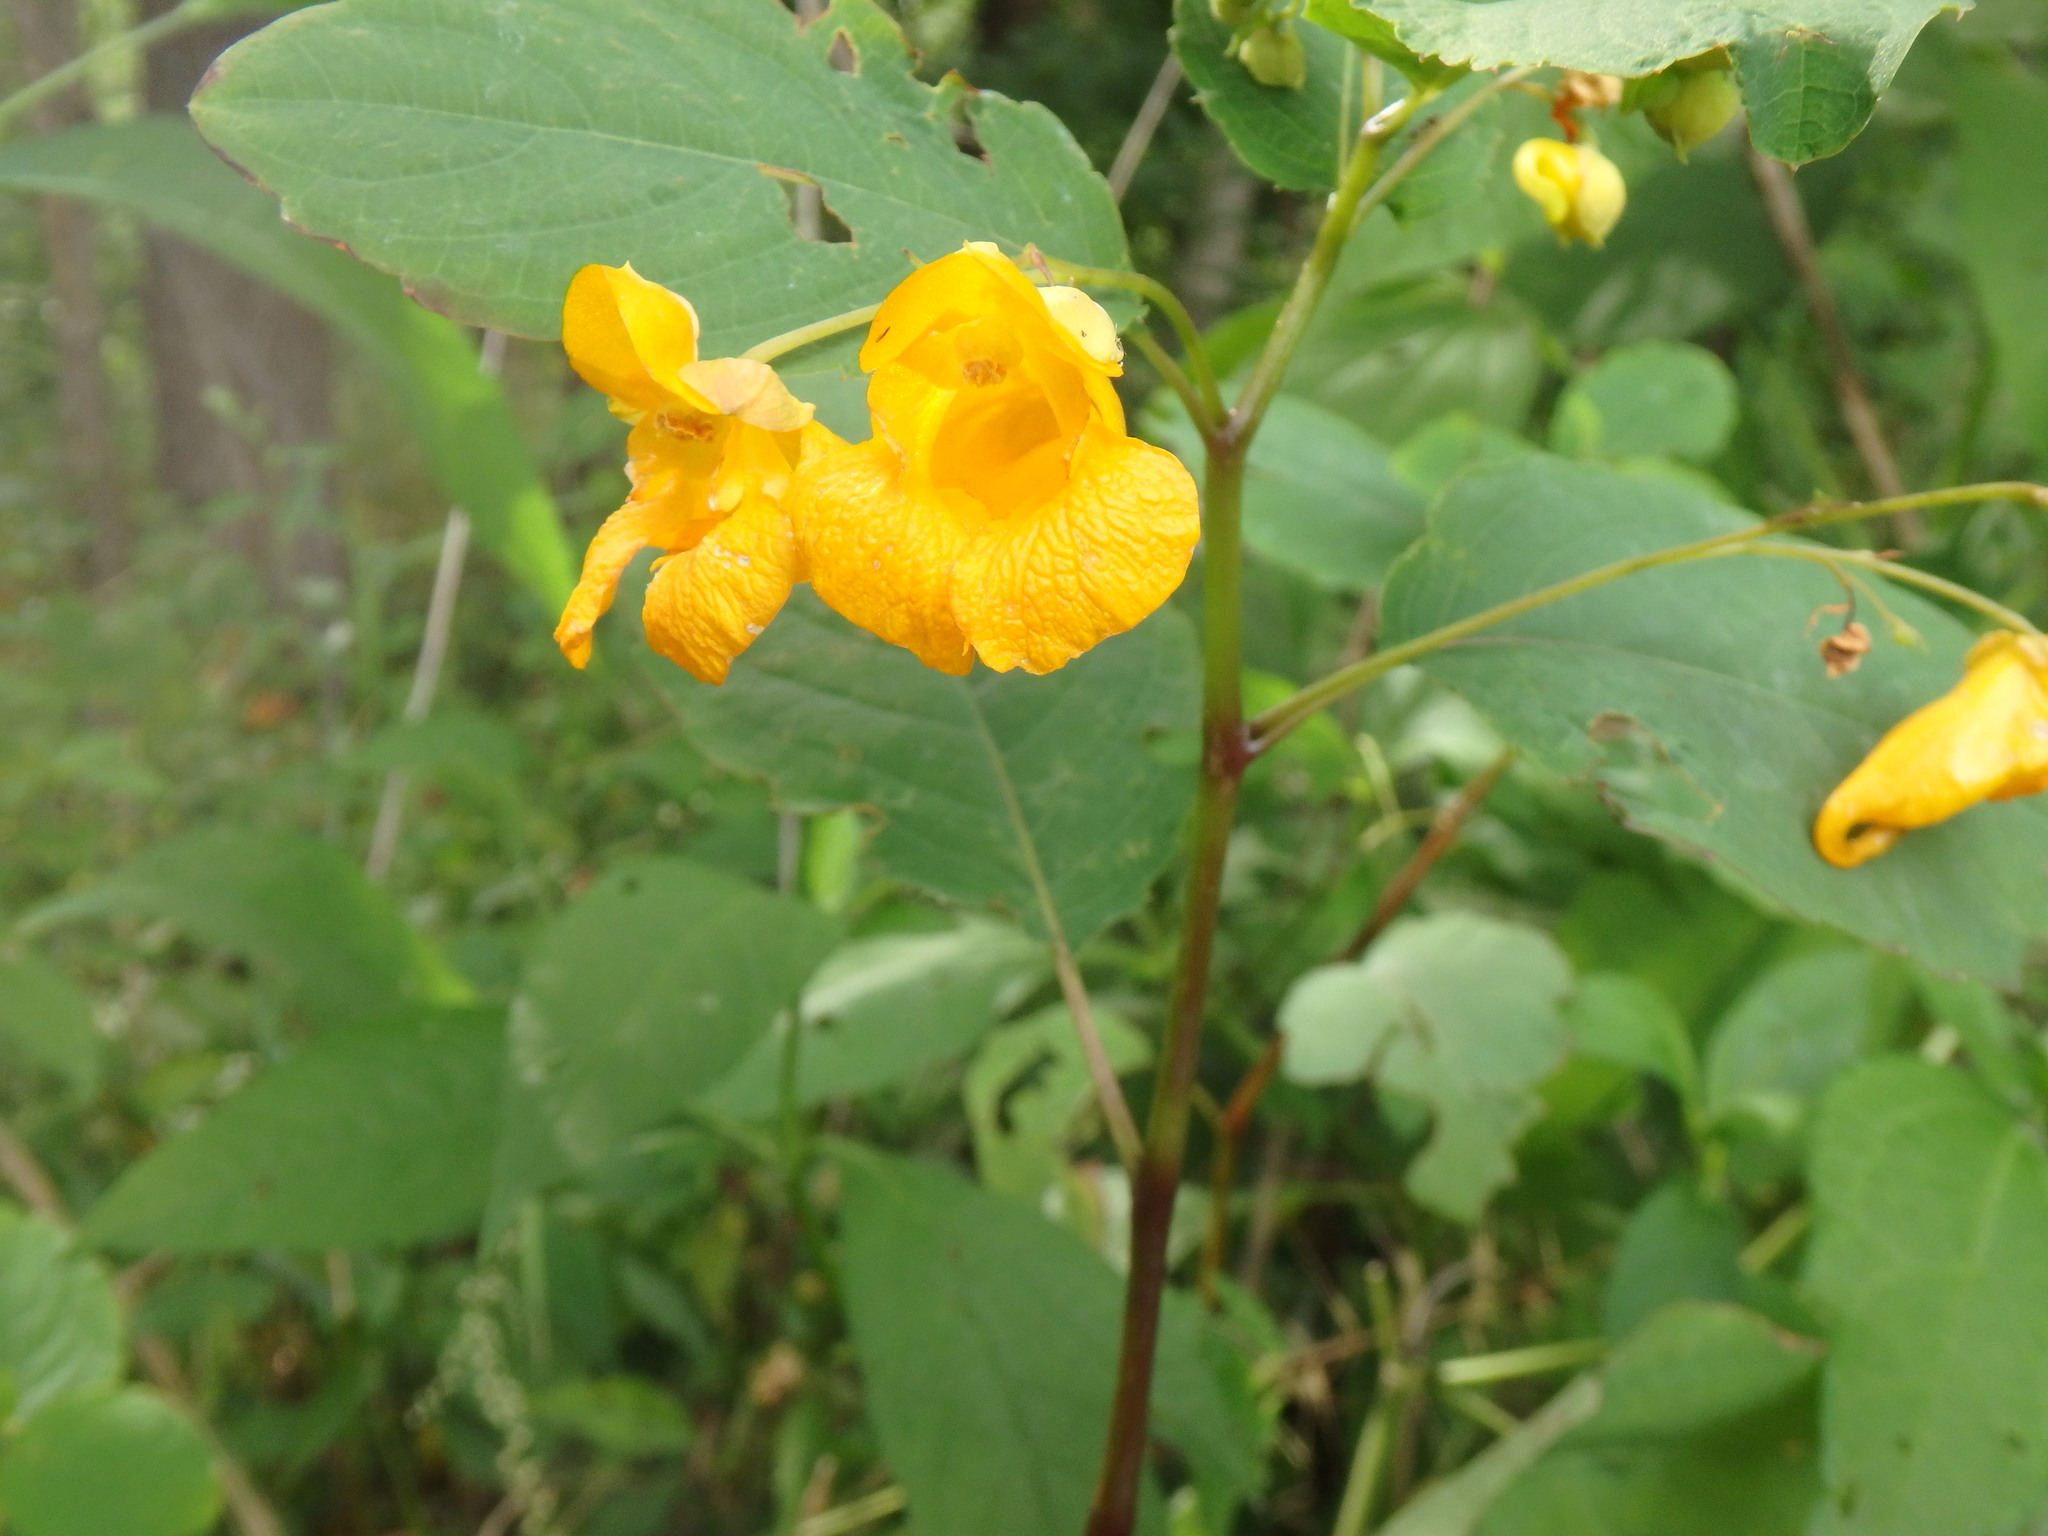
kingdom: Plantae
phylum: Tracheophyta
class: Magnoliopsida
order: Ericales
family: Balsaminaceae
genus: Impatiens
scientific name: Impatiens capensis
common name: Orange balsam
